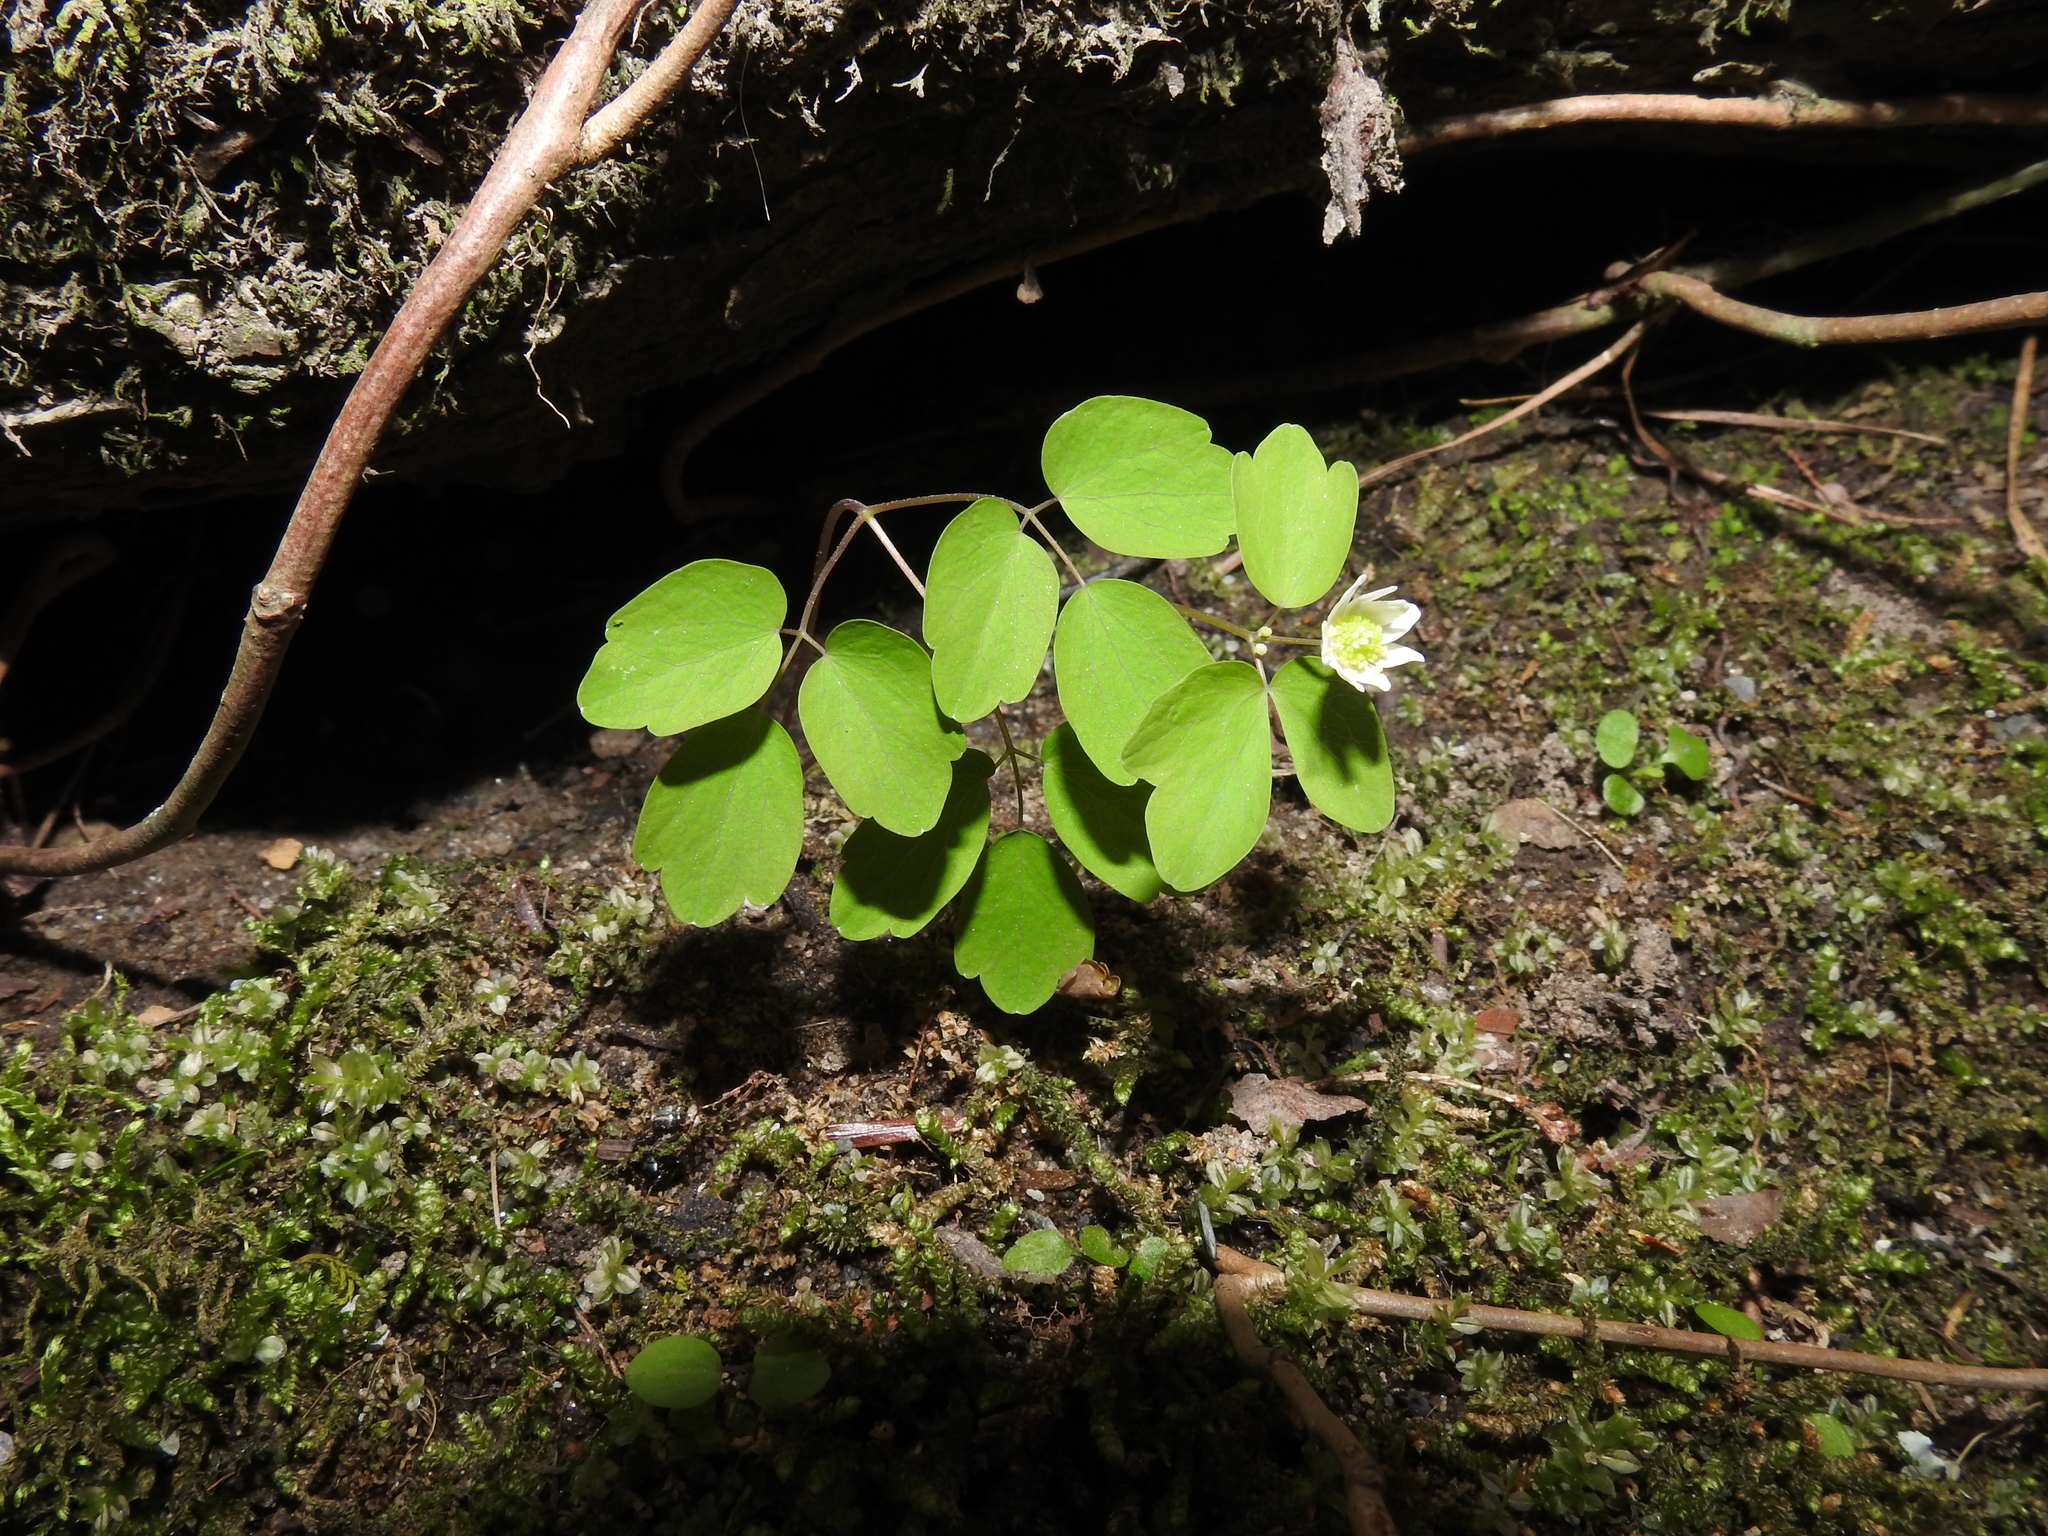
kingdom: Plantae
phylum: Tracheophyta
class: Magnoliopsida
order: Ranunculales
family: Ranunculaceae
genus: Thalictrum
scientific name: Thalictrum thalictroides
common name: Rue-anemone
